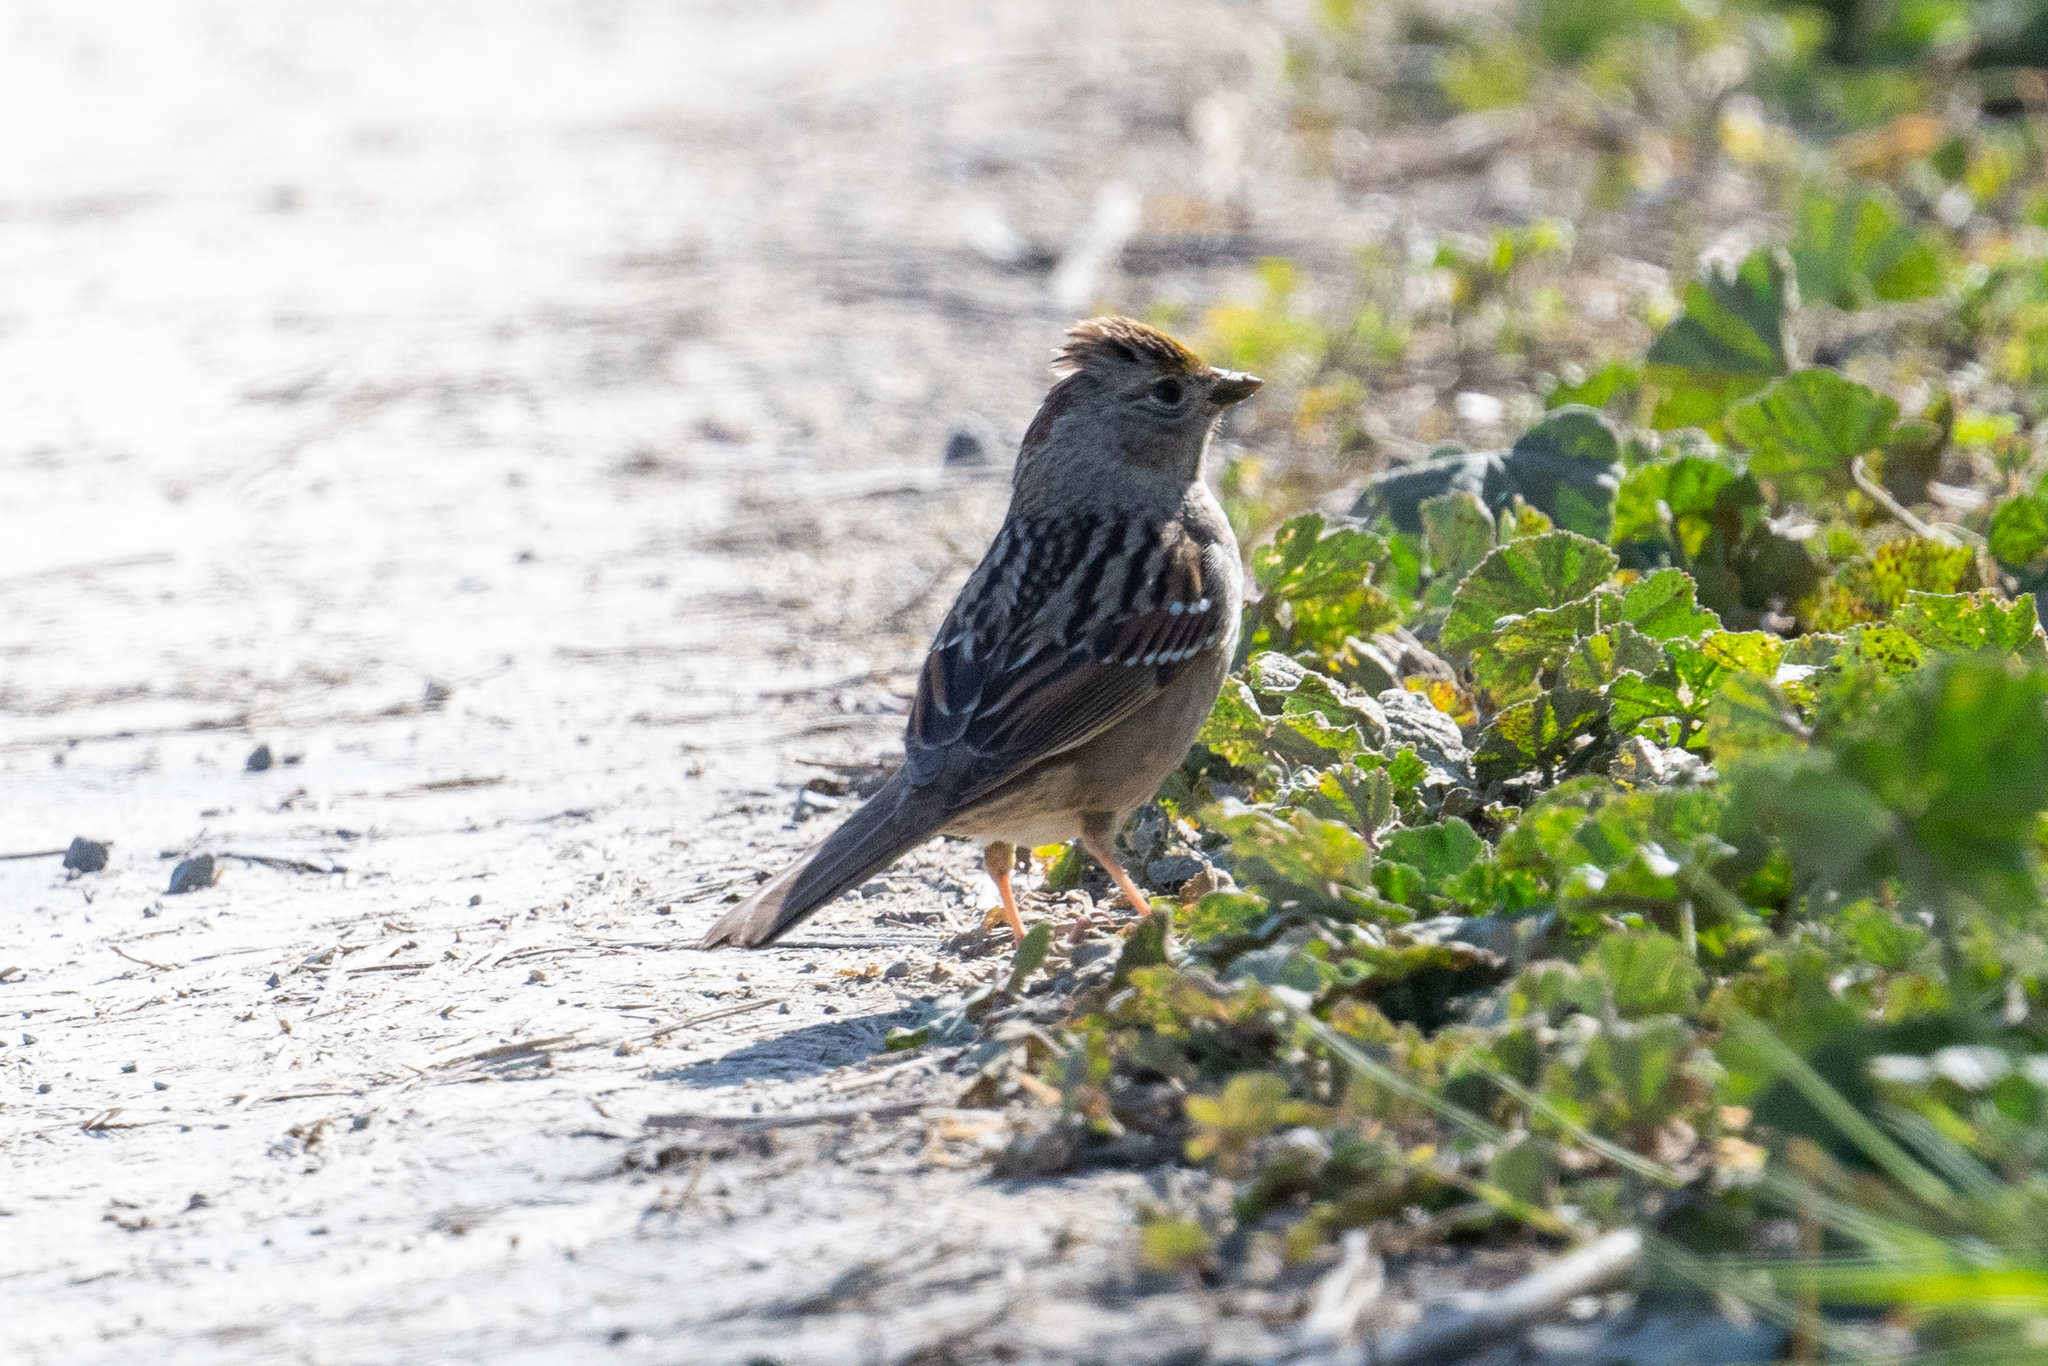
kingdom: Animalia
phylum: Chordata
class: Aves
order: Passeriformes
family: Passerellidae
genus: Zonotrichia
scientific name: Zonotrichia atricapilla
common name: Golden-crowned sparrow
